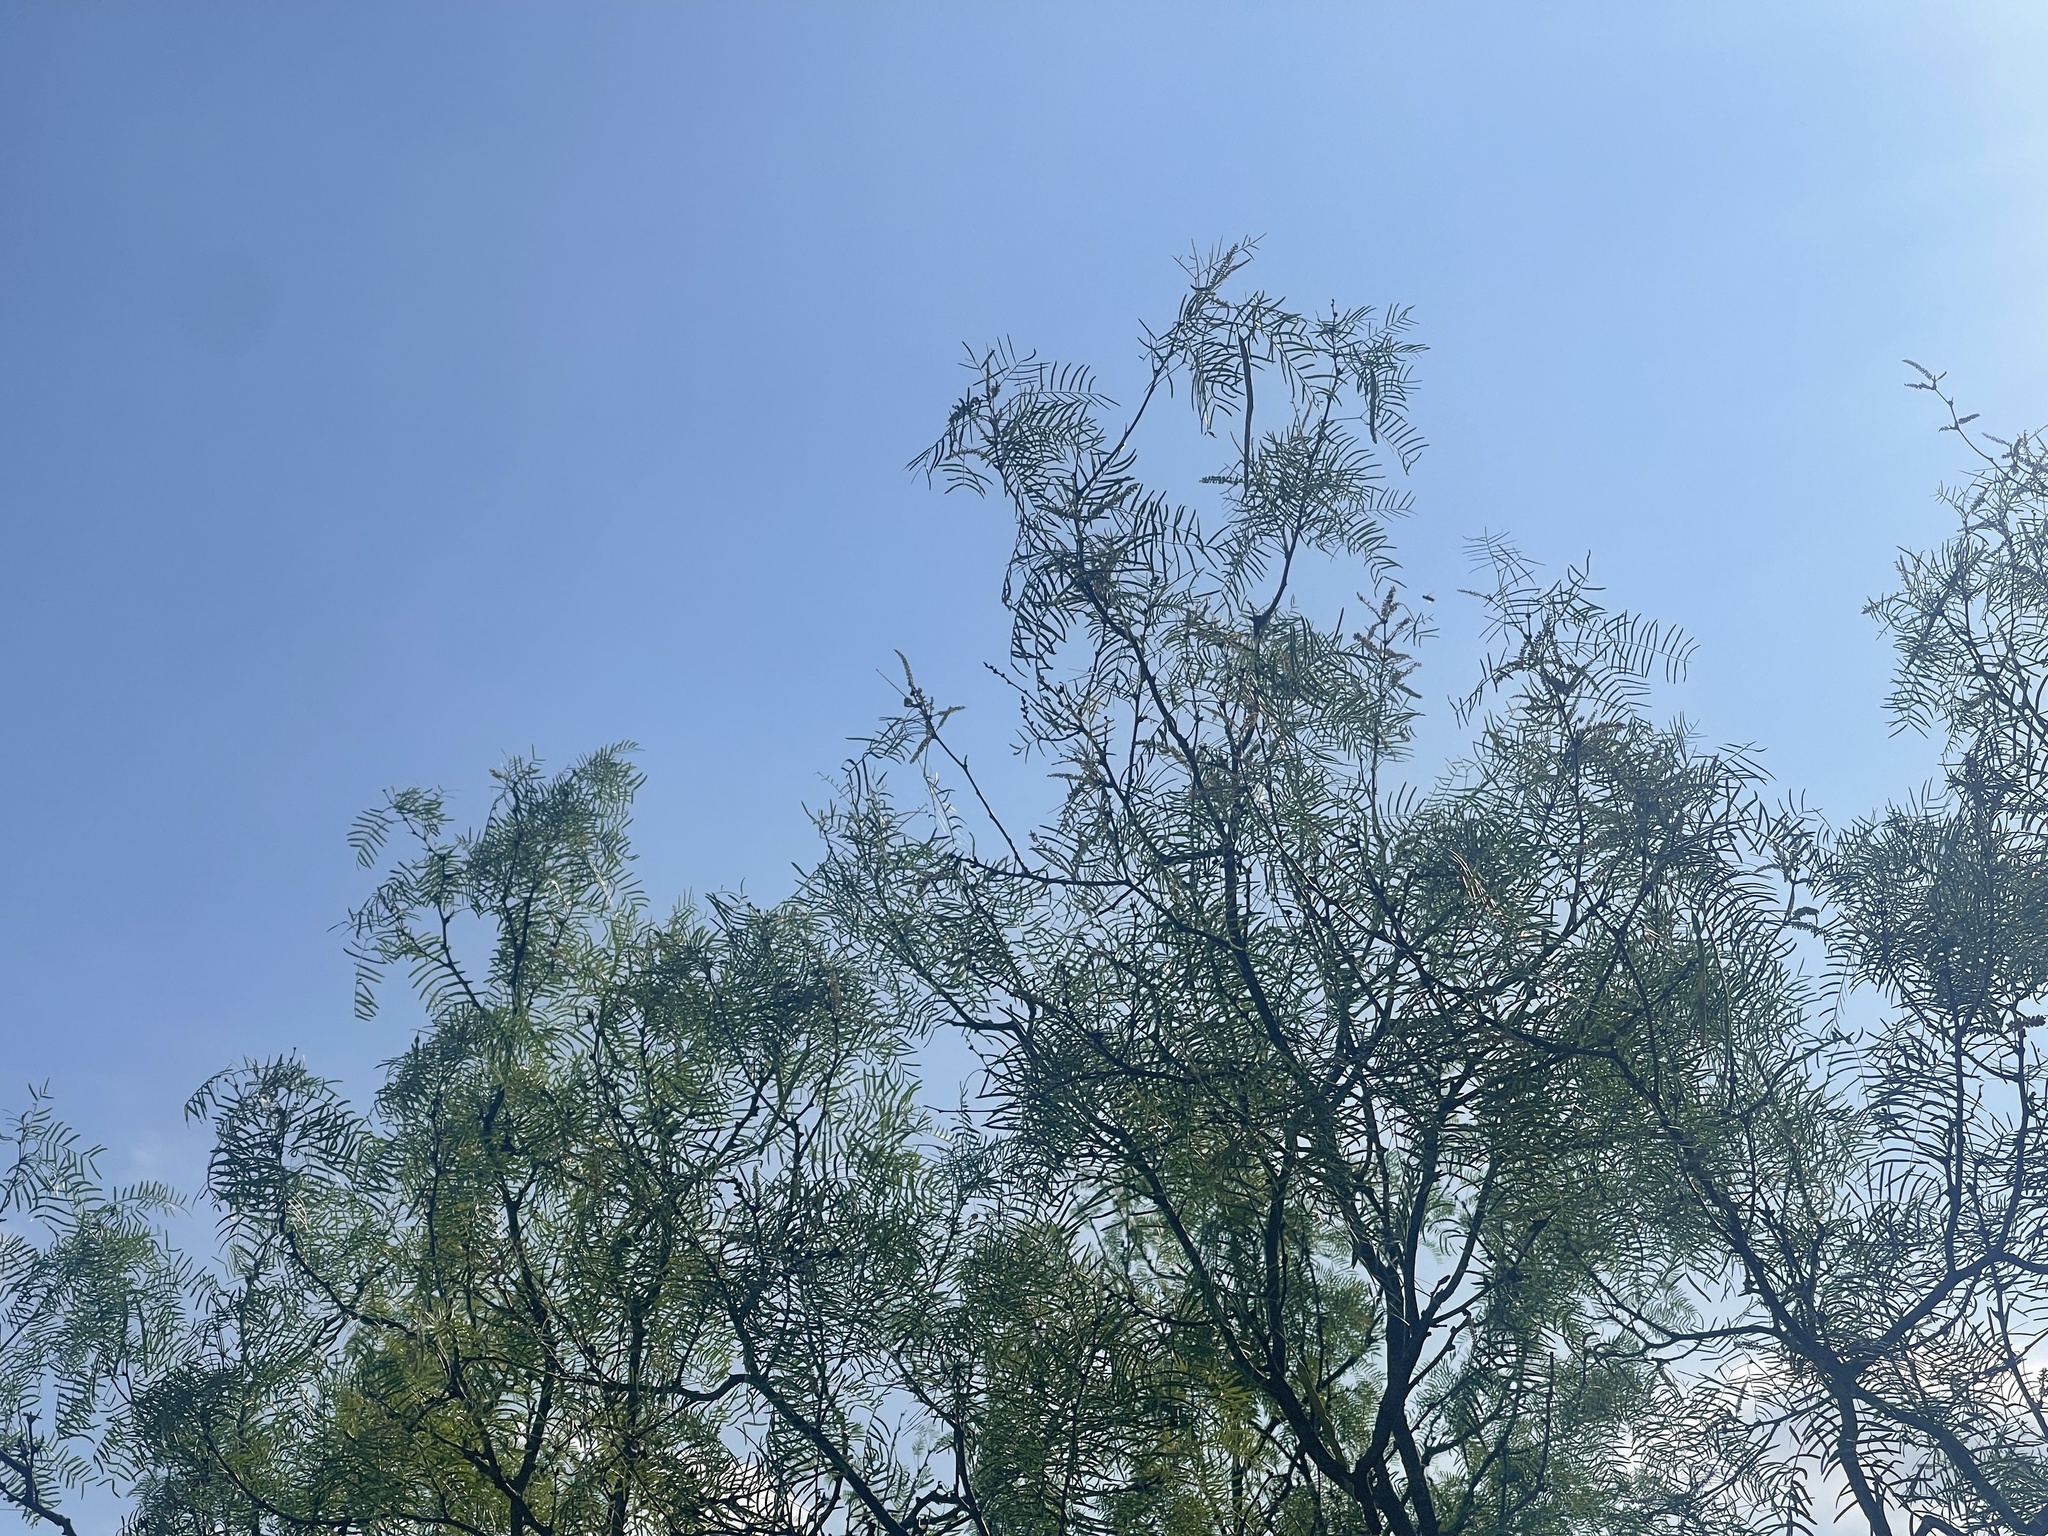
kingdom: Plantae
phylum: Tracheophyta
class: Magnoliopsida
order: Fabales
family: Fabaceae
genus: Prosopis
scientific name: Prosopis glandulosa
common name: Honey mesquite
